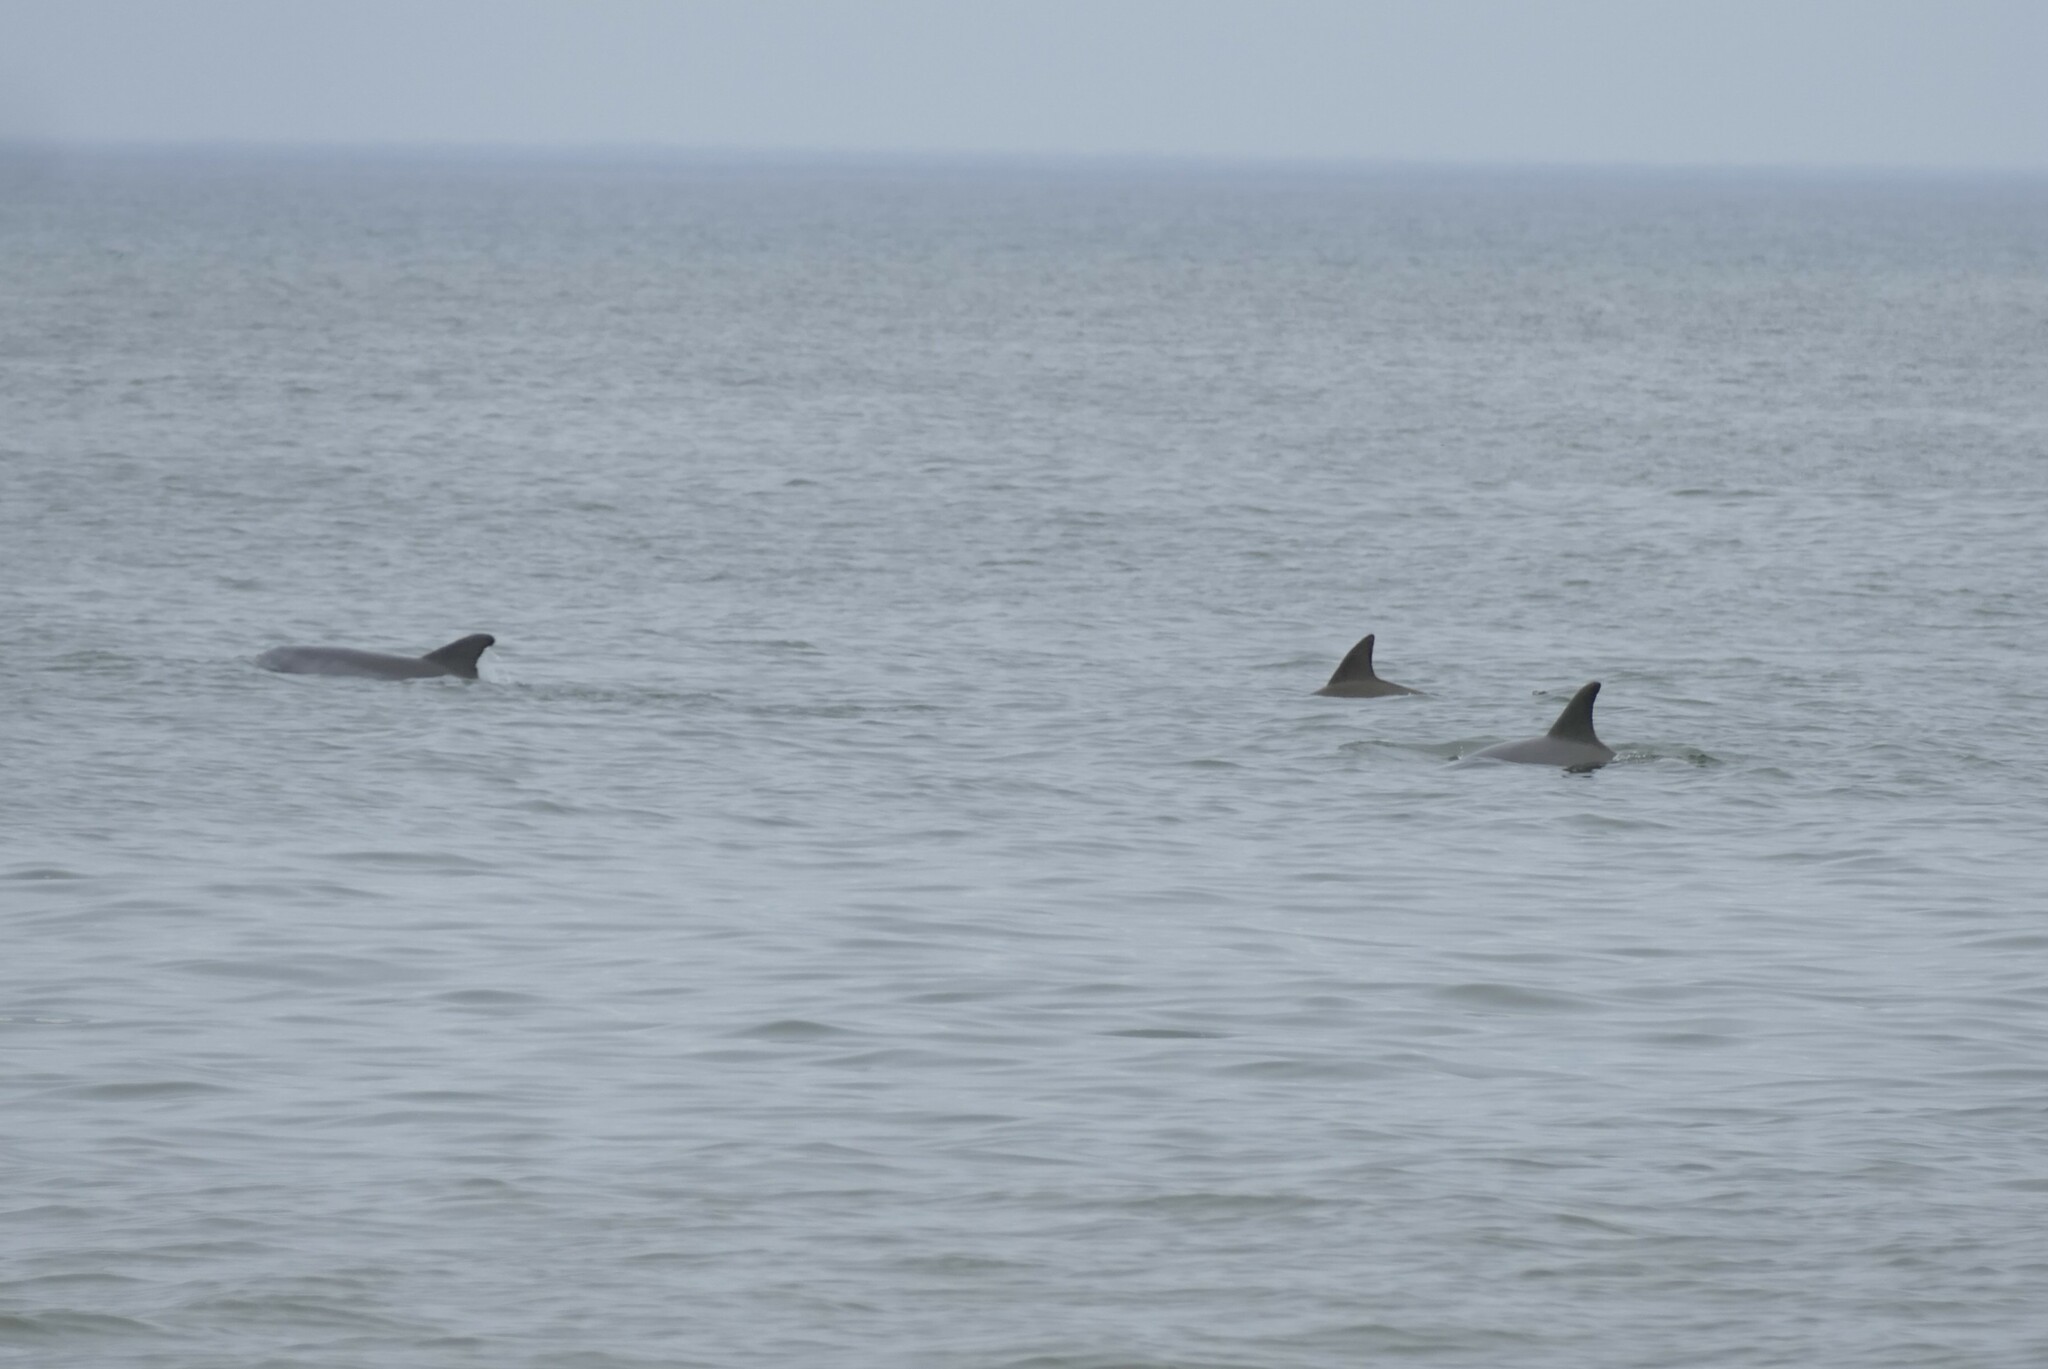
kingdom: Animalia
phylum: Chordata
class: Mammalia
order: Cetacea
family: Delphinidae
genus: Tursiops
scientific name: Tursiops truncatus
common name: Bottlenose dolphin
